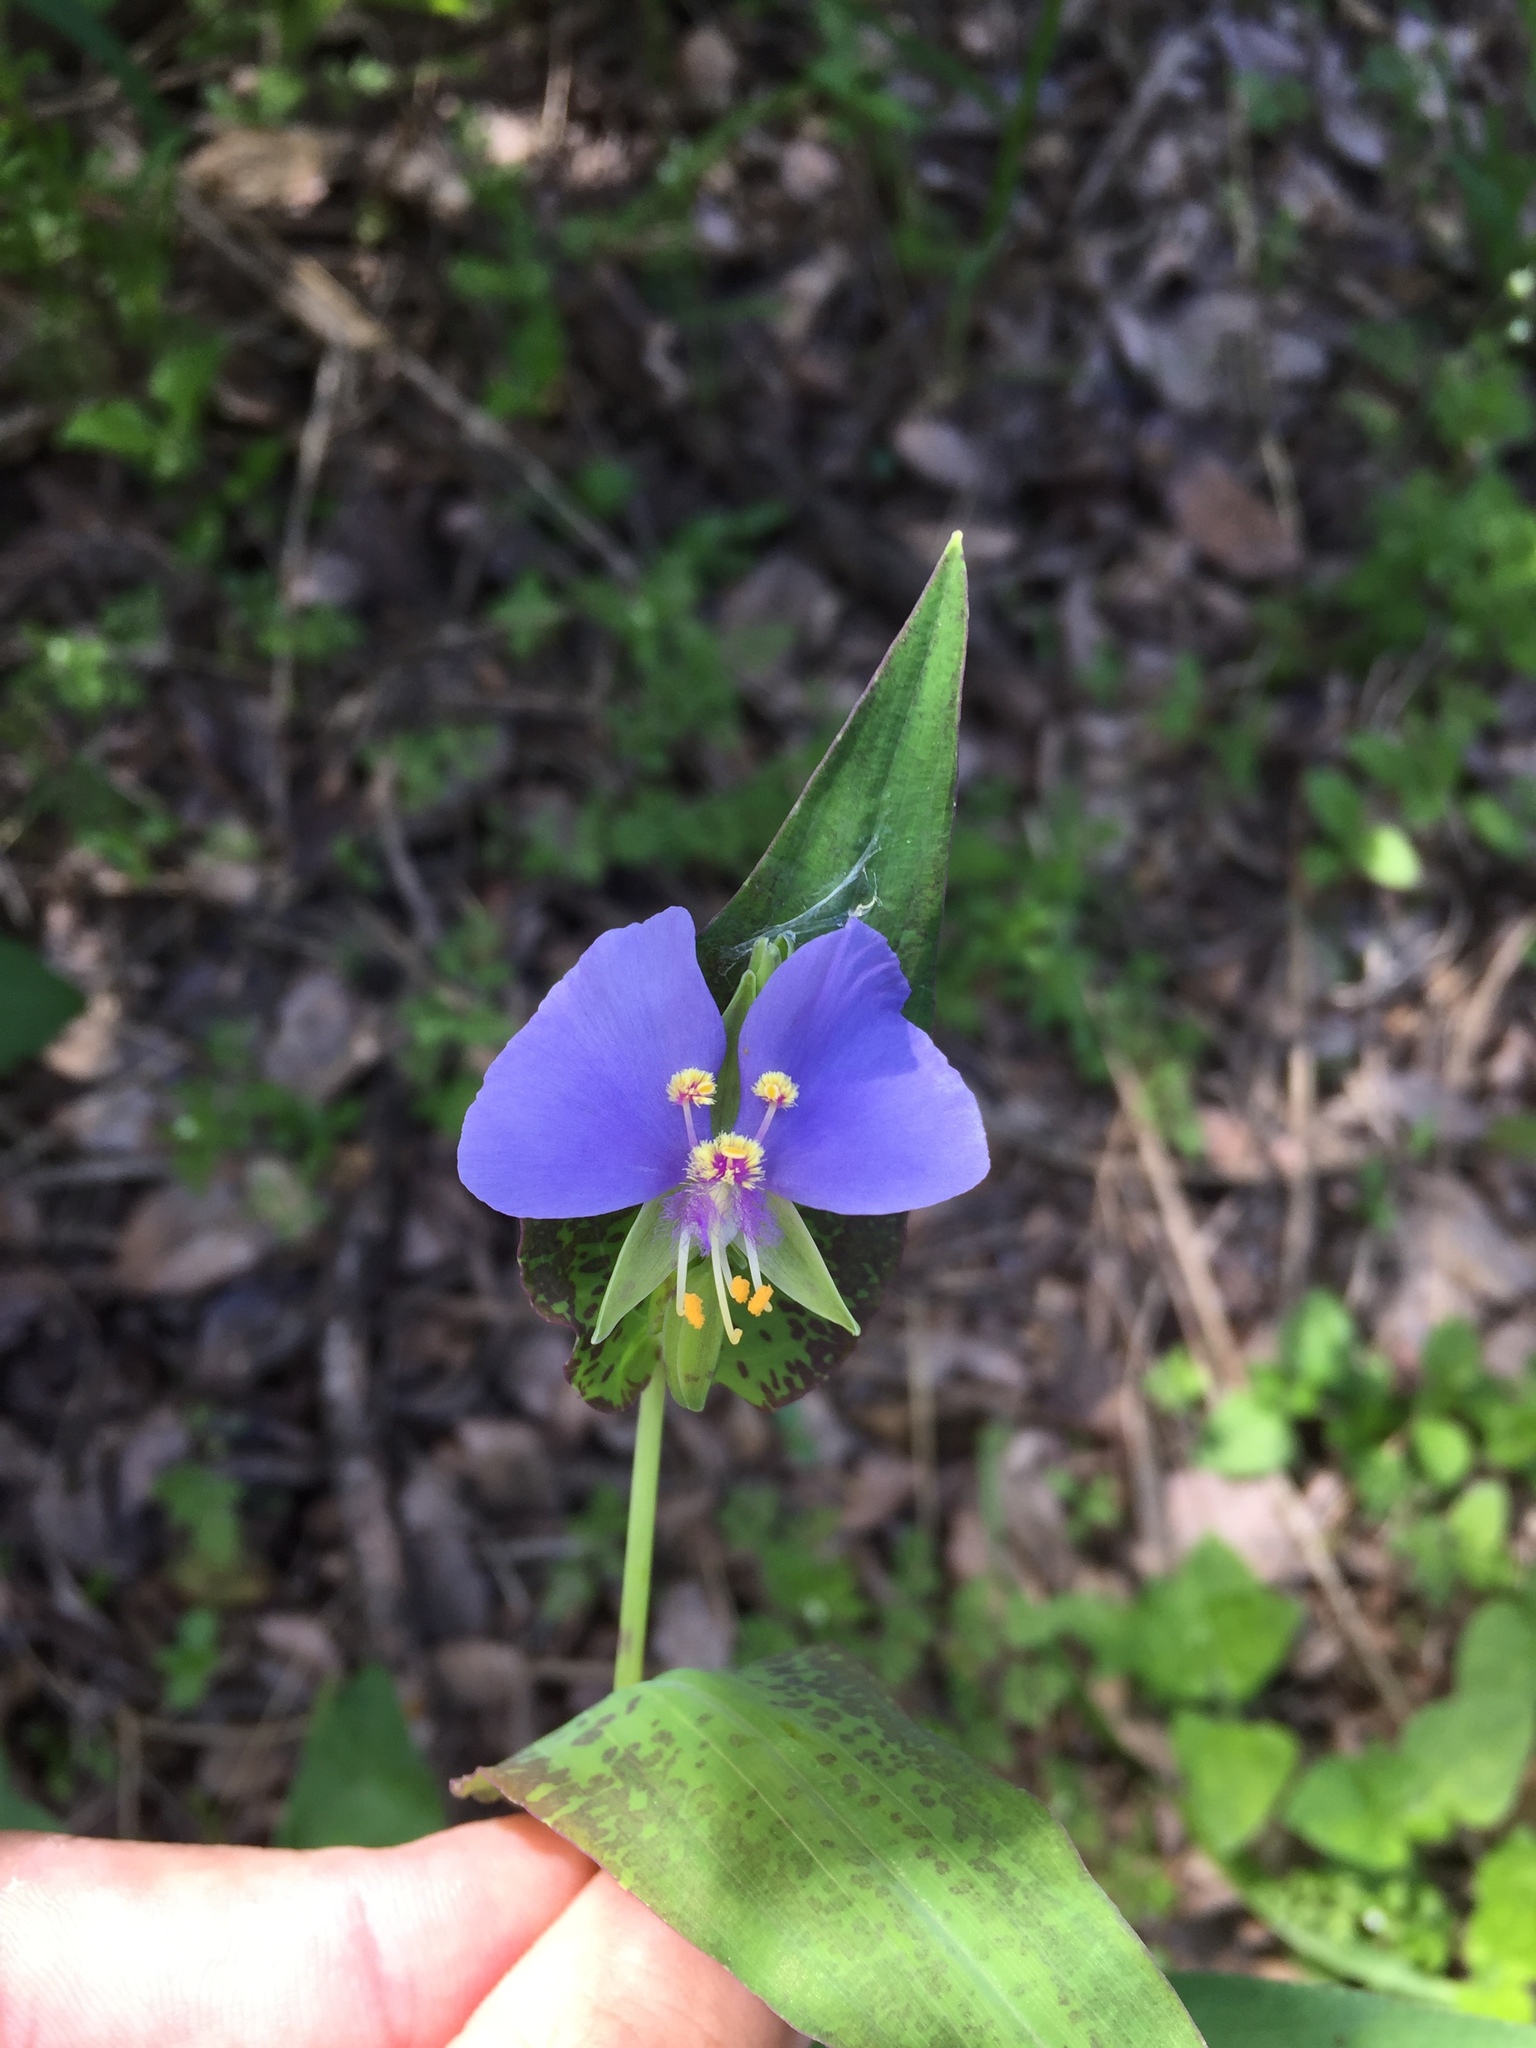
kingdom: Plantae
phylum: Tracheophyta
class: Liliopsida
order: Commelinales
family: Commelinaceae
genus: Tinantia
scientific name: Tinantia anomala
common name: False dayflower
